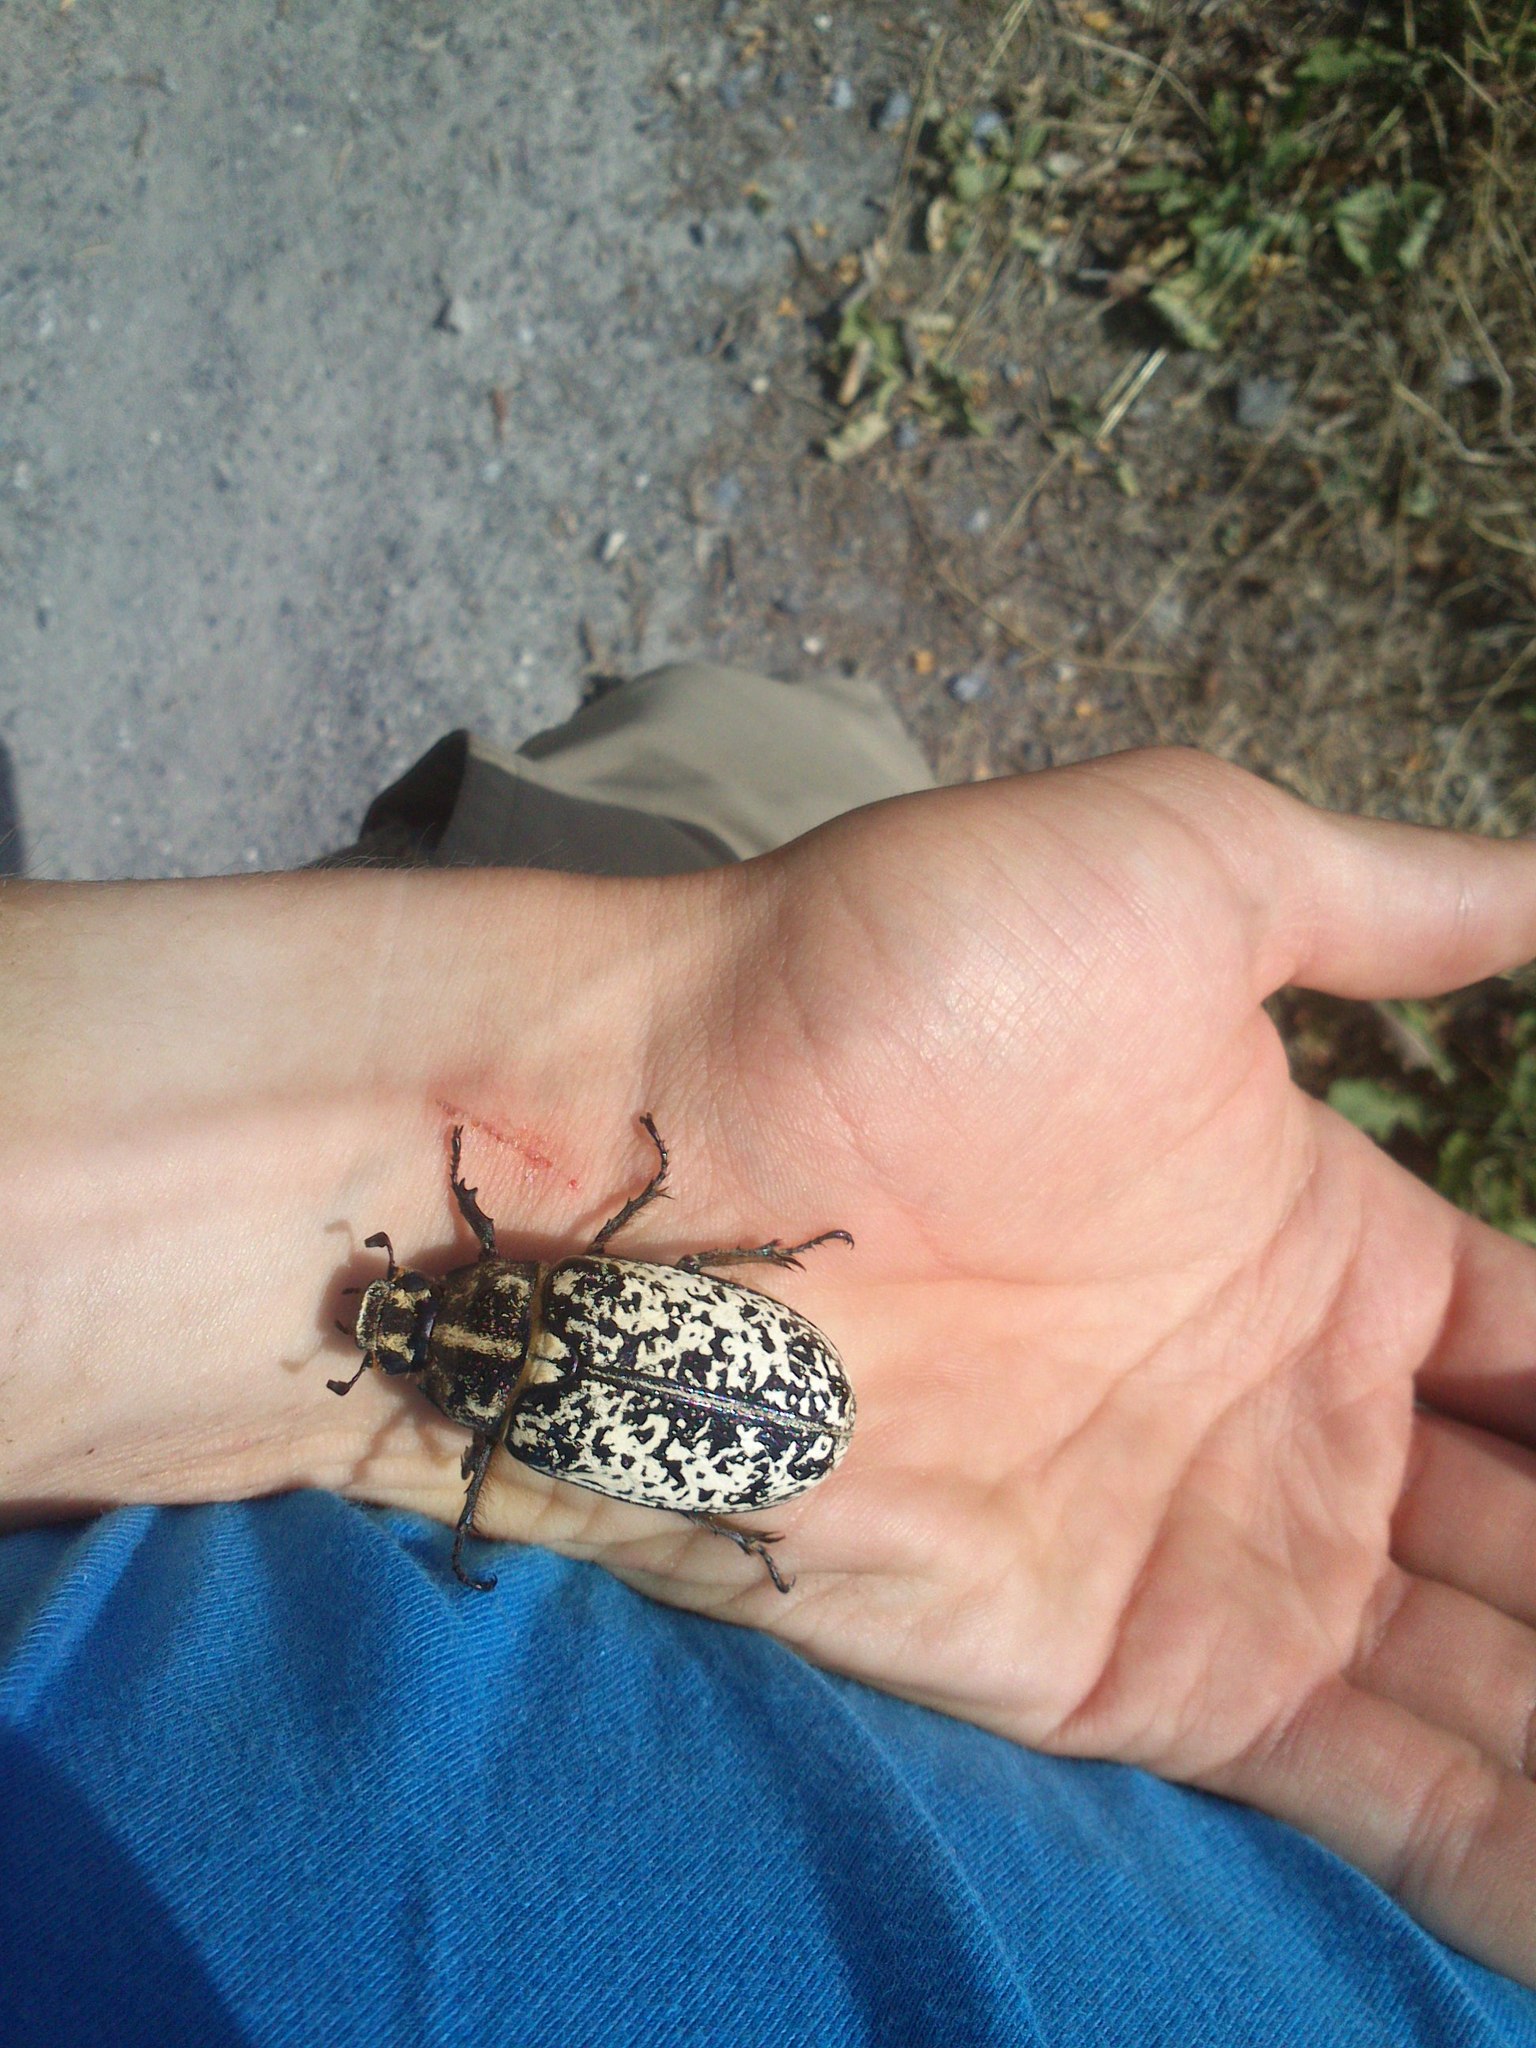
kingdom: Animalia
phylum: Arthropoda
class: Insecta
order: Coleoptera
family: Scarabaeidae
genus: Polyphylla
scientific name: Polyphylla fullo
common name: Pine chafer
